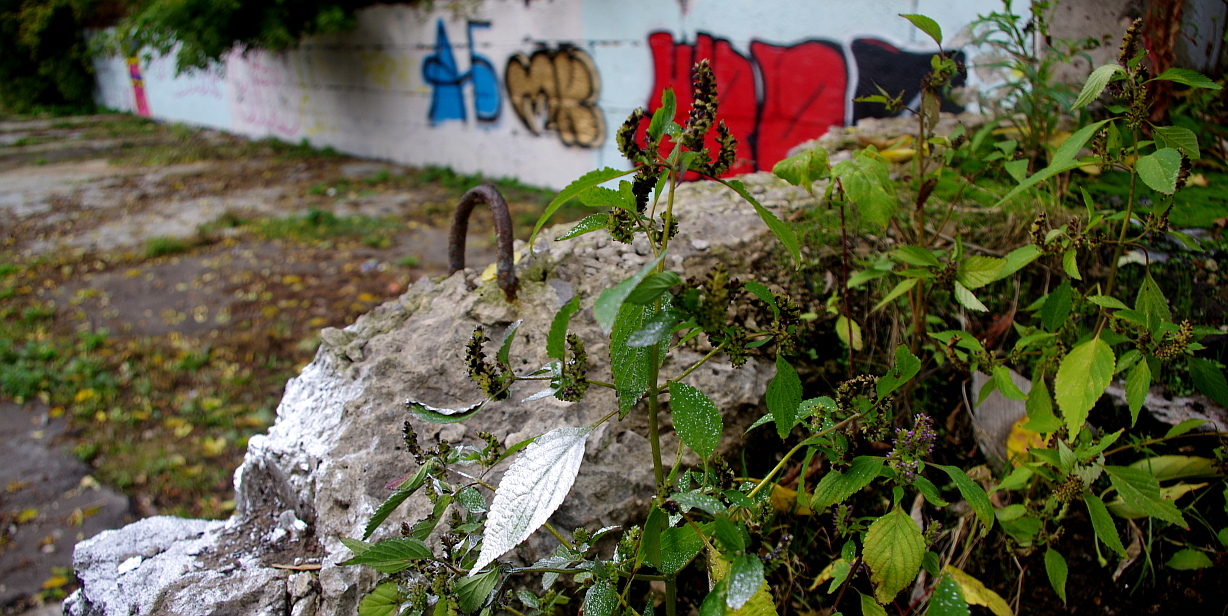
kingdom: Plantae
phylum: Tracheophyta
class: Magnoliopsida
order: Lamiales
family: Lamiaceae
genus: Elsholtzia
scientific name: Elsholtzia ciliata
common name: Ciliate elsholtzia
